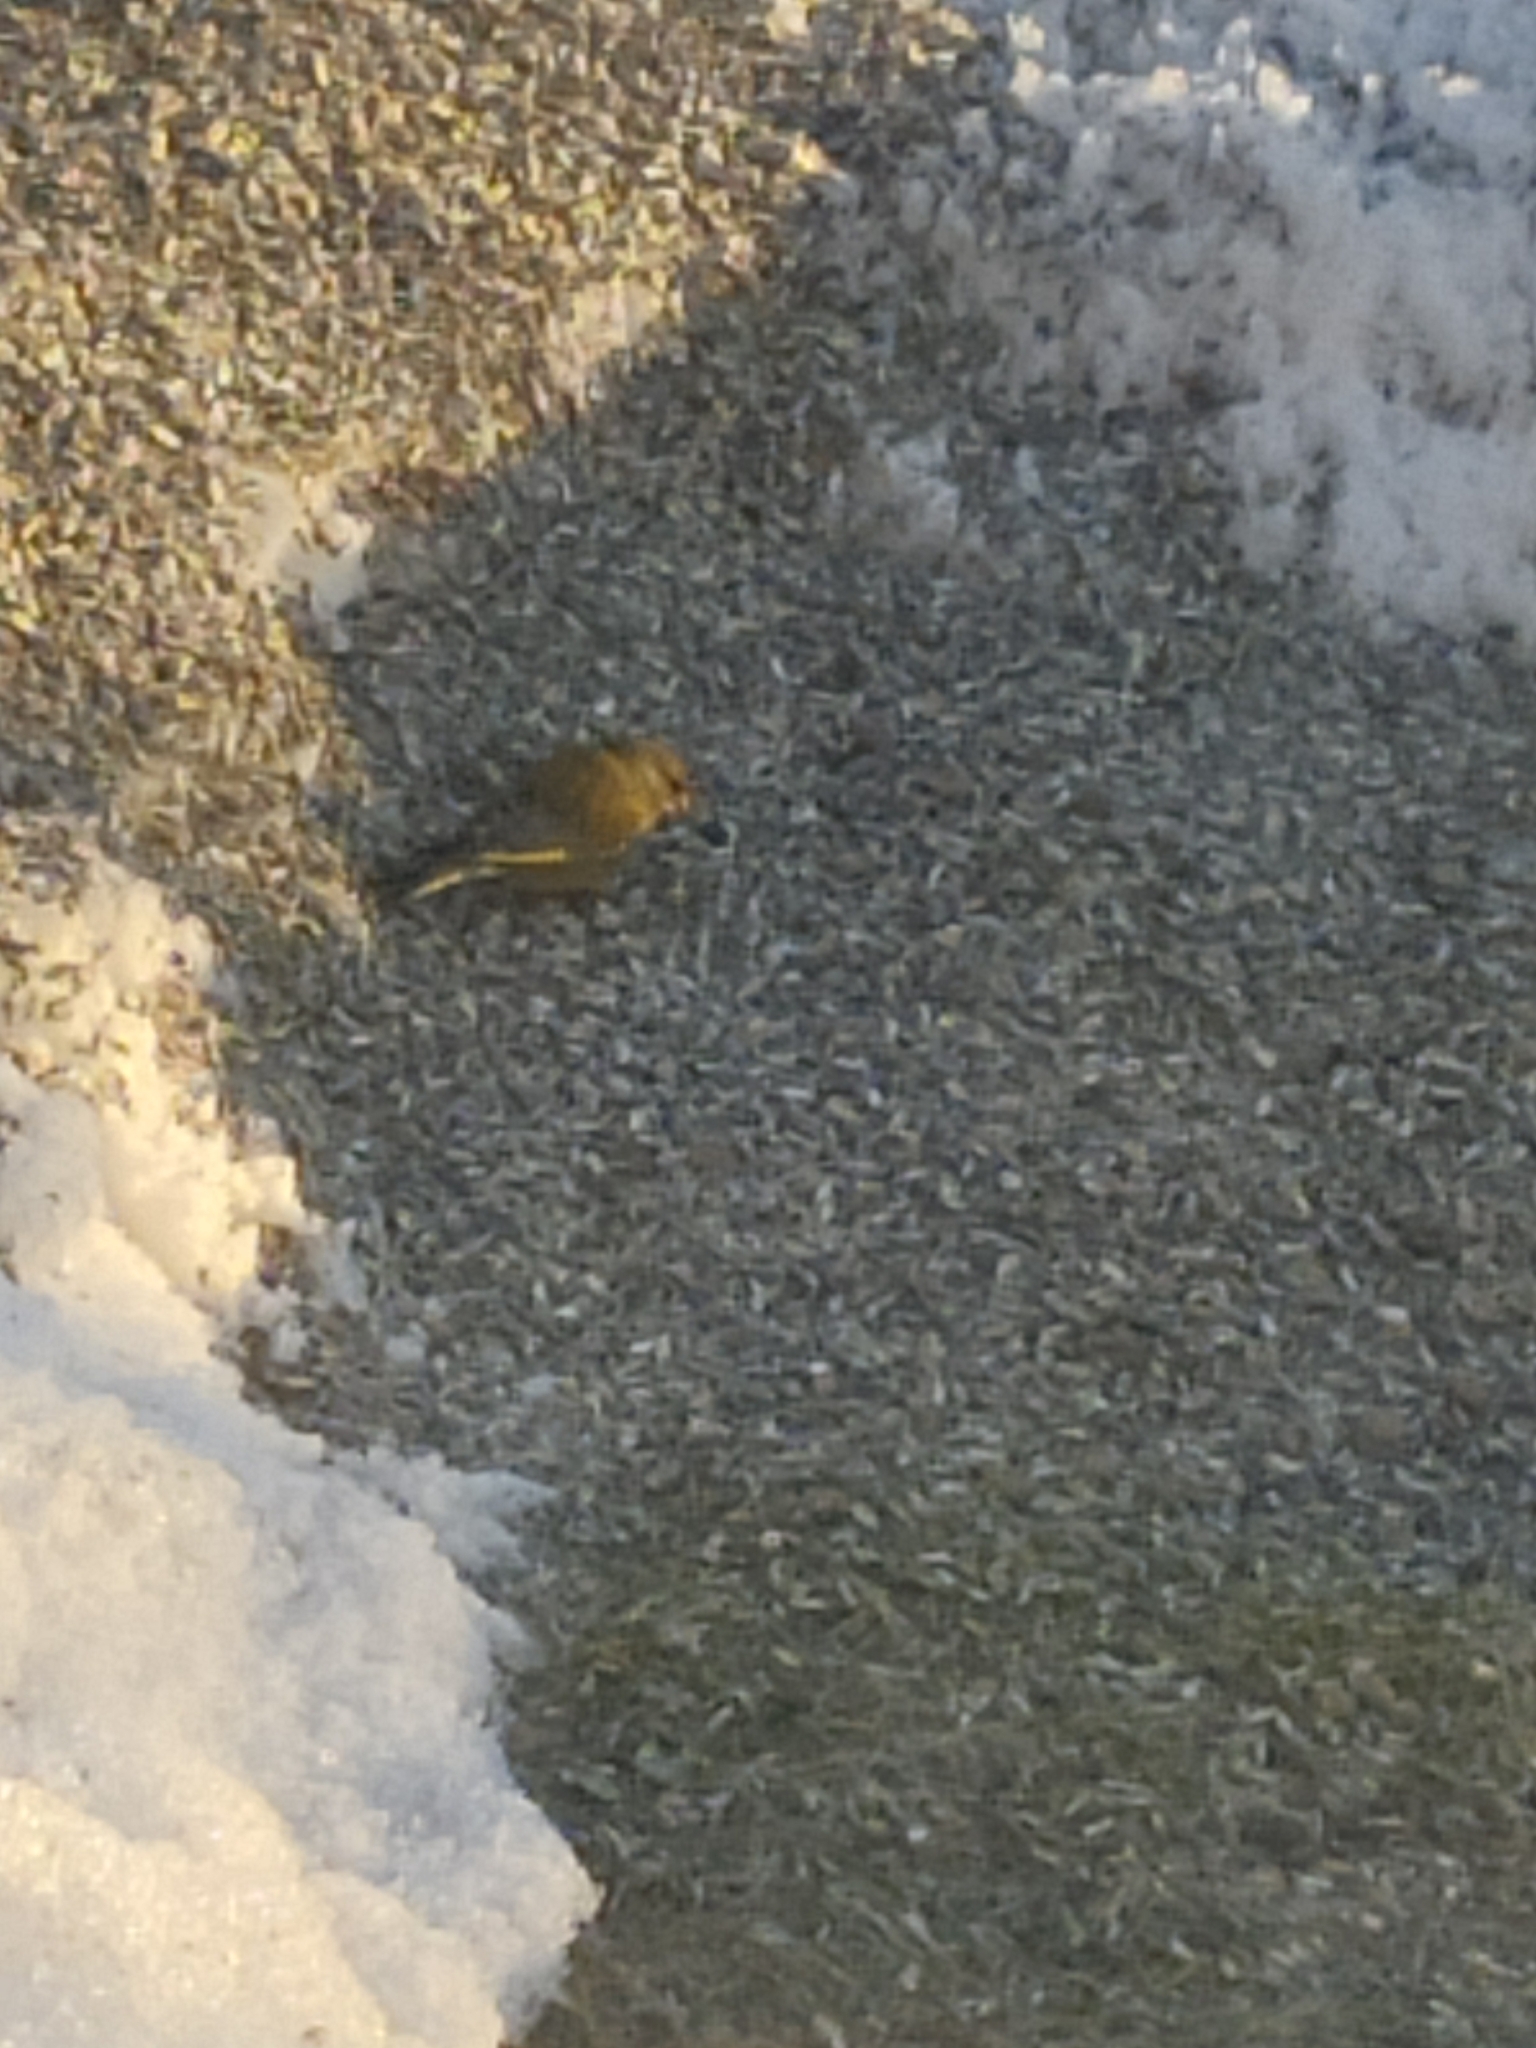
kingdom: Plantae
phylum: Tracheophyta
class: Liliopsida
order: Poales
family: Poaceae
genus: Chloris
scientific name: Chloris chloris
